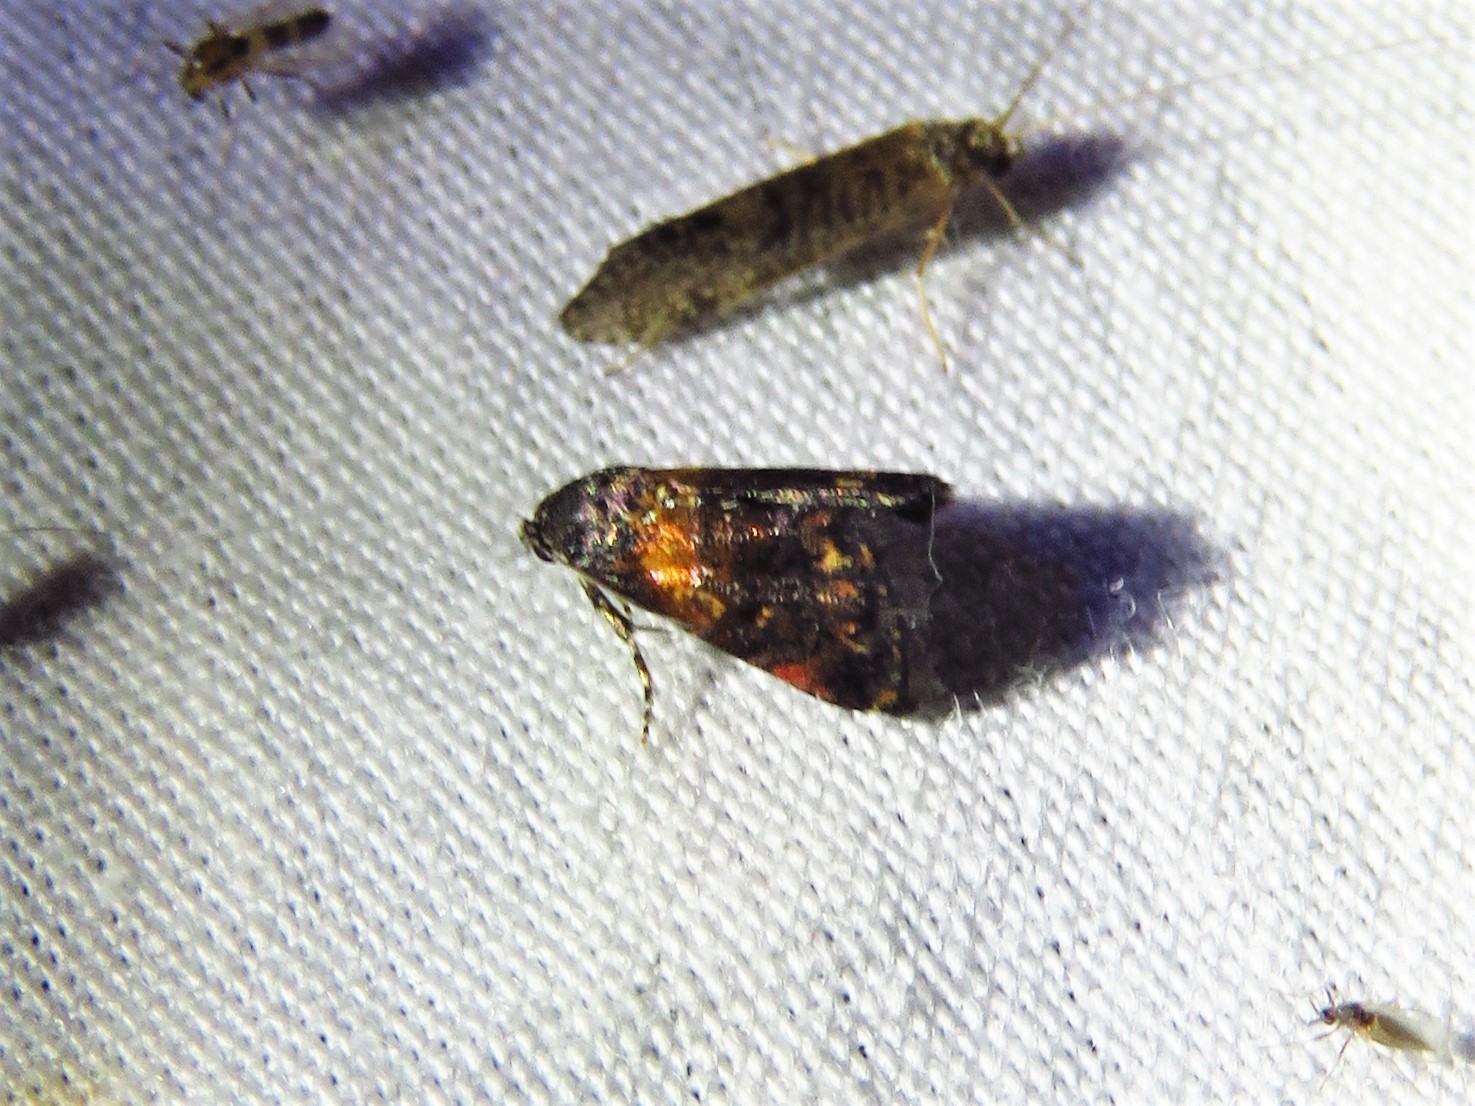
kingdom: Animalia
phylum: Arthropoda
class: Insecta
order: Lepidoptera
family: Noctuidae
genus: Tripudia
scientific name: Tripudia flavofasciata
